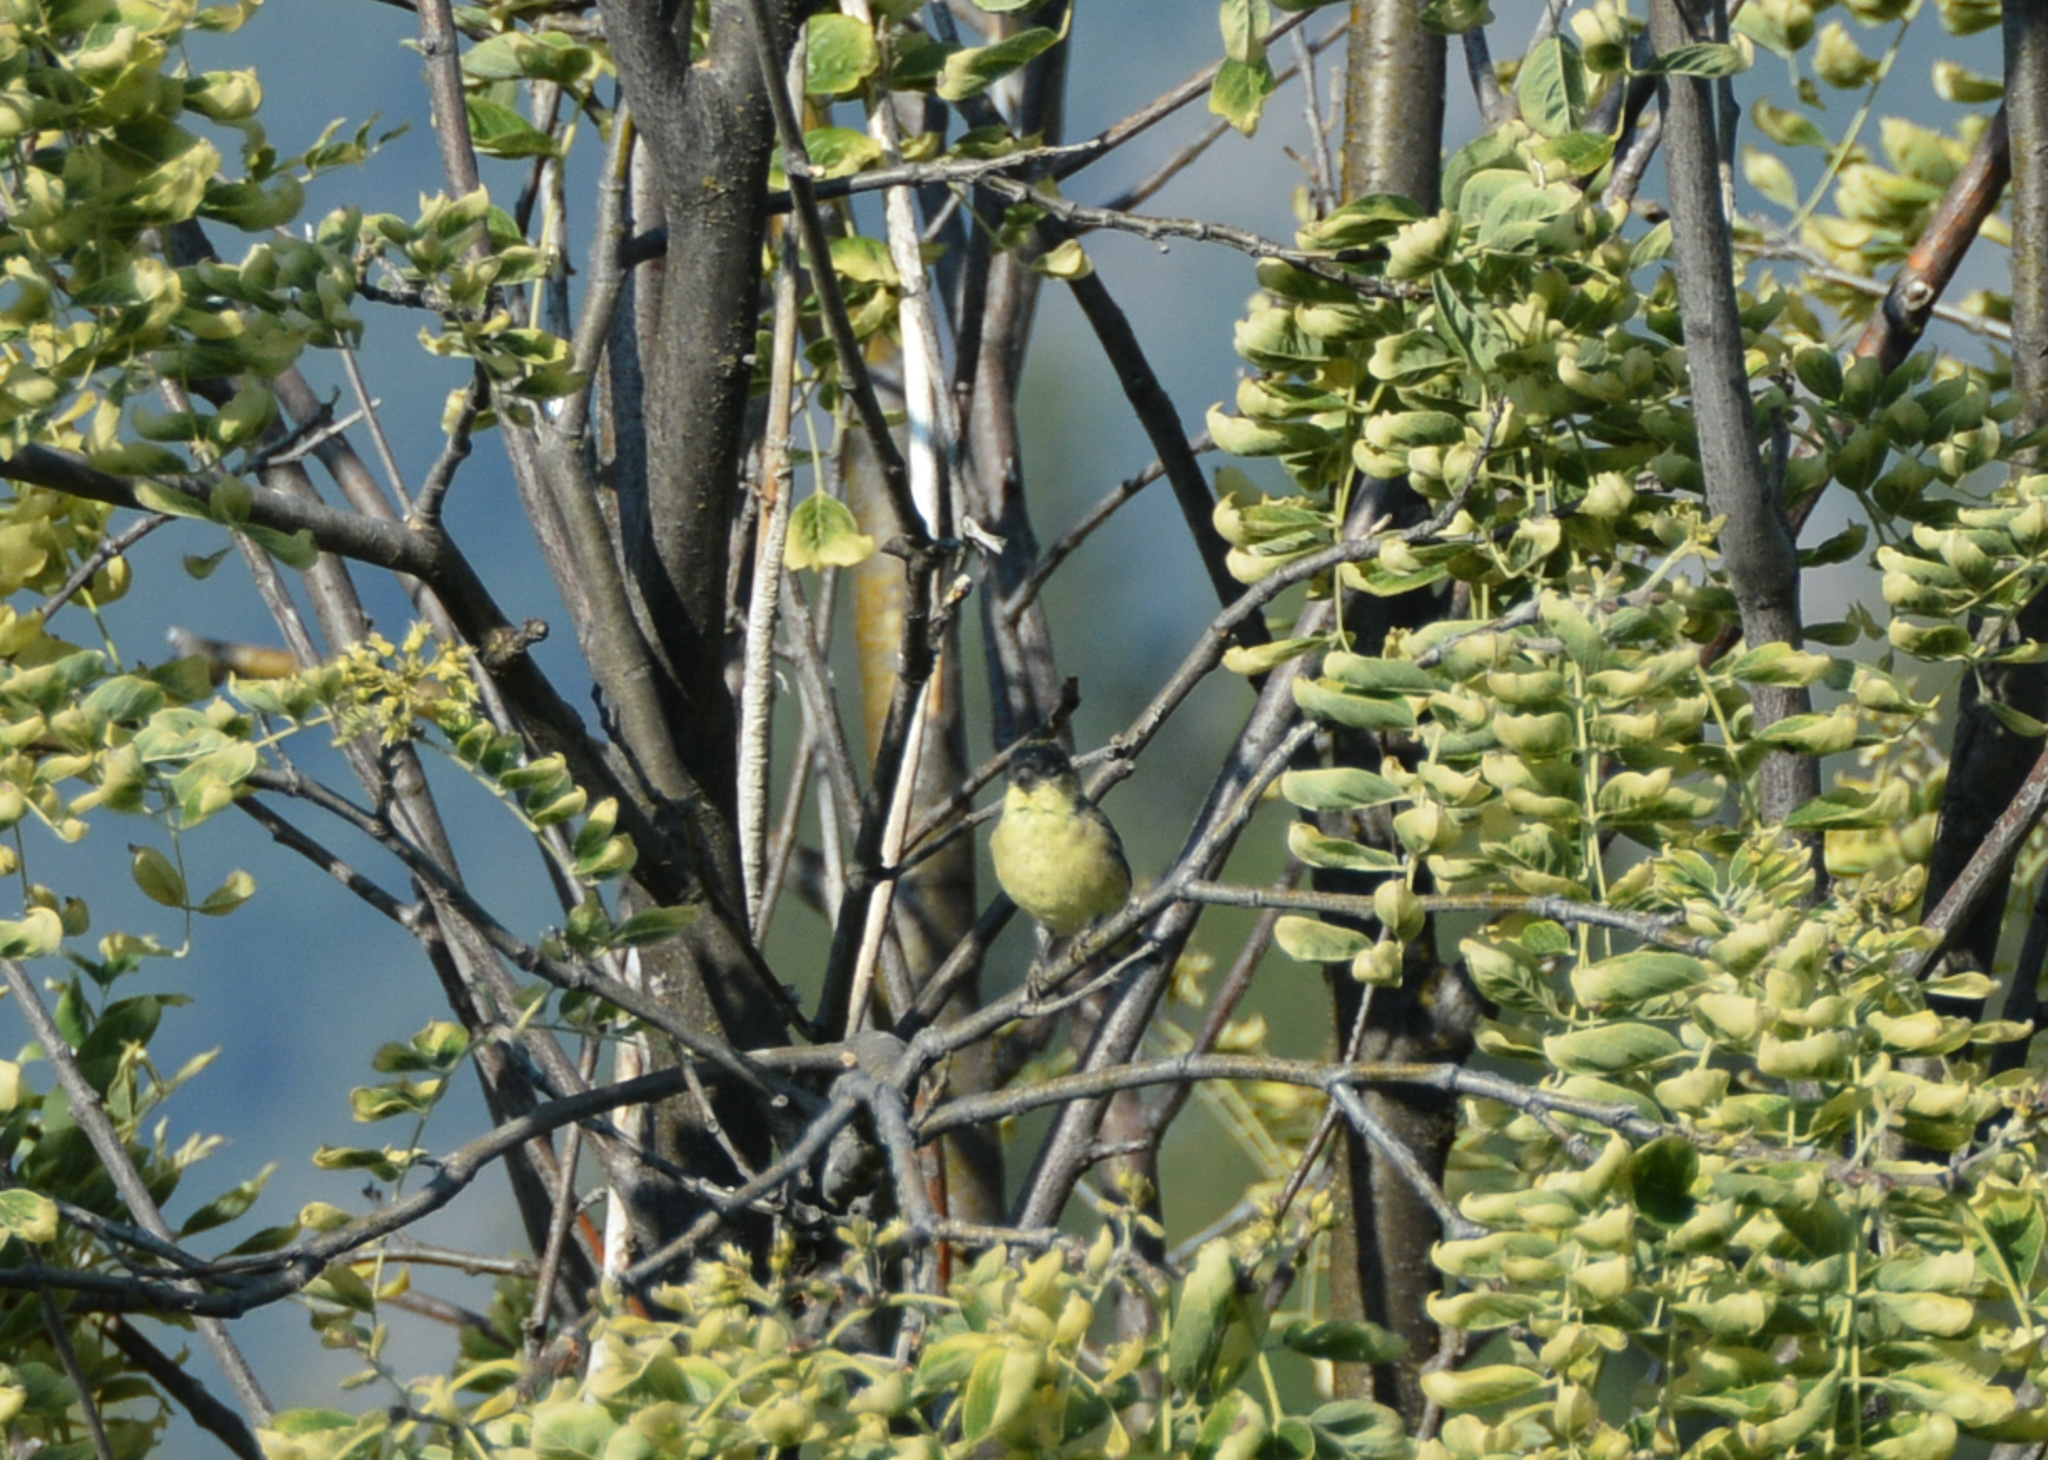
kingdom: Animalia
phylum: Chordata
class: Aves
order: Passeriformes
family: Fringillidae
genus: Spinus
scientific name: Spinus psaltria
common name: Lesser goldfinch
